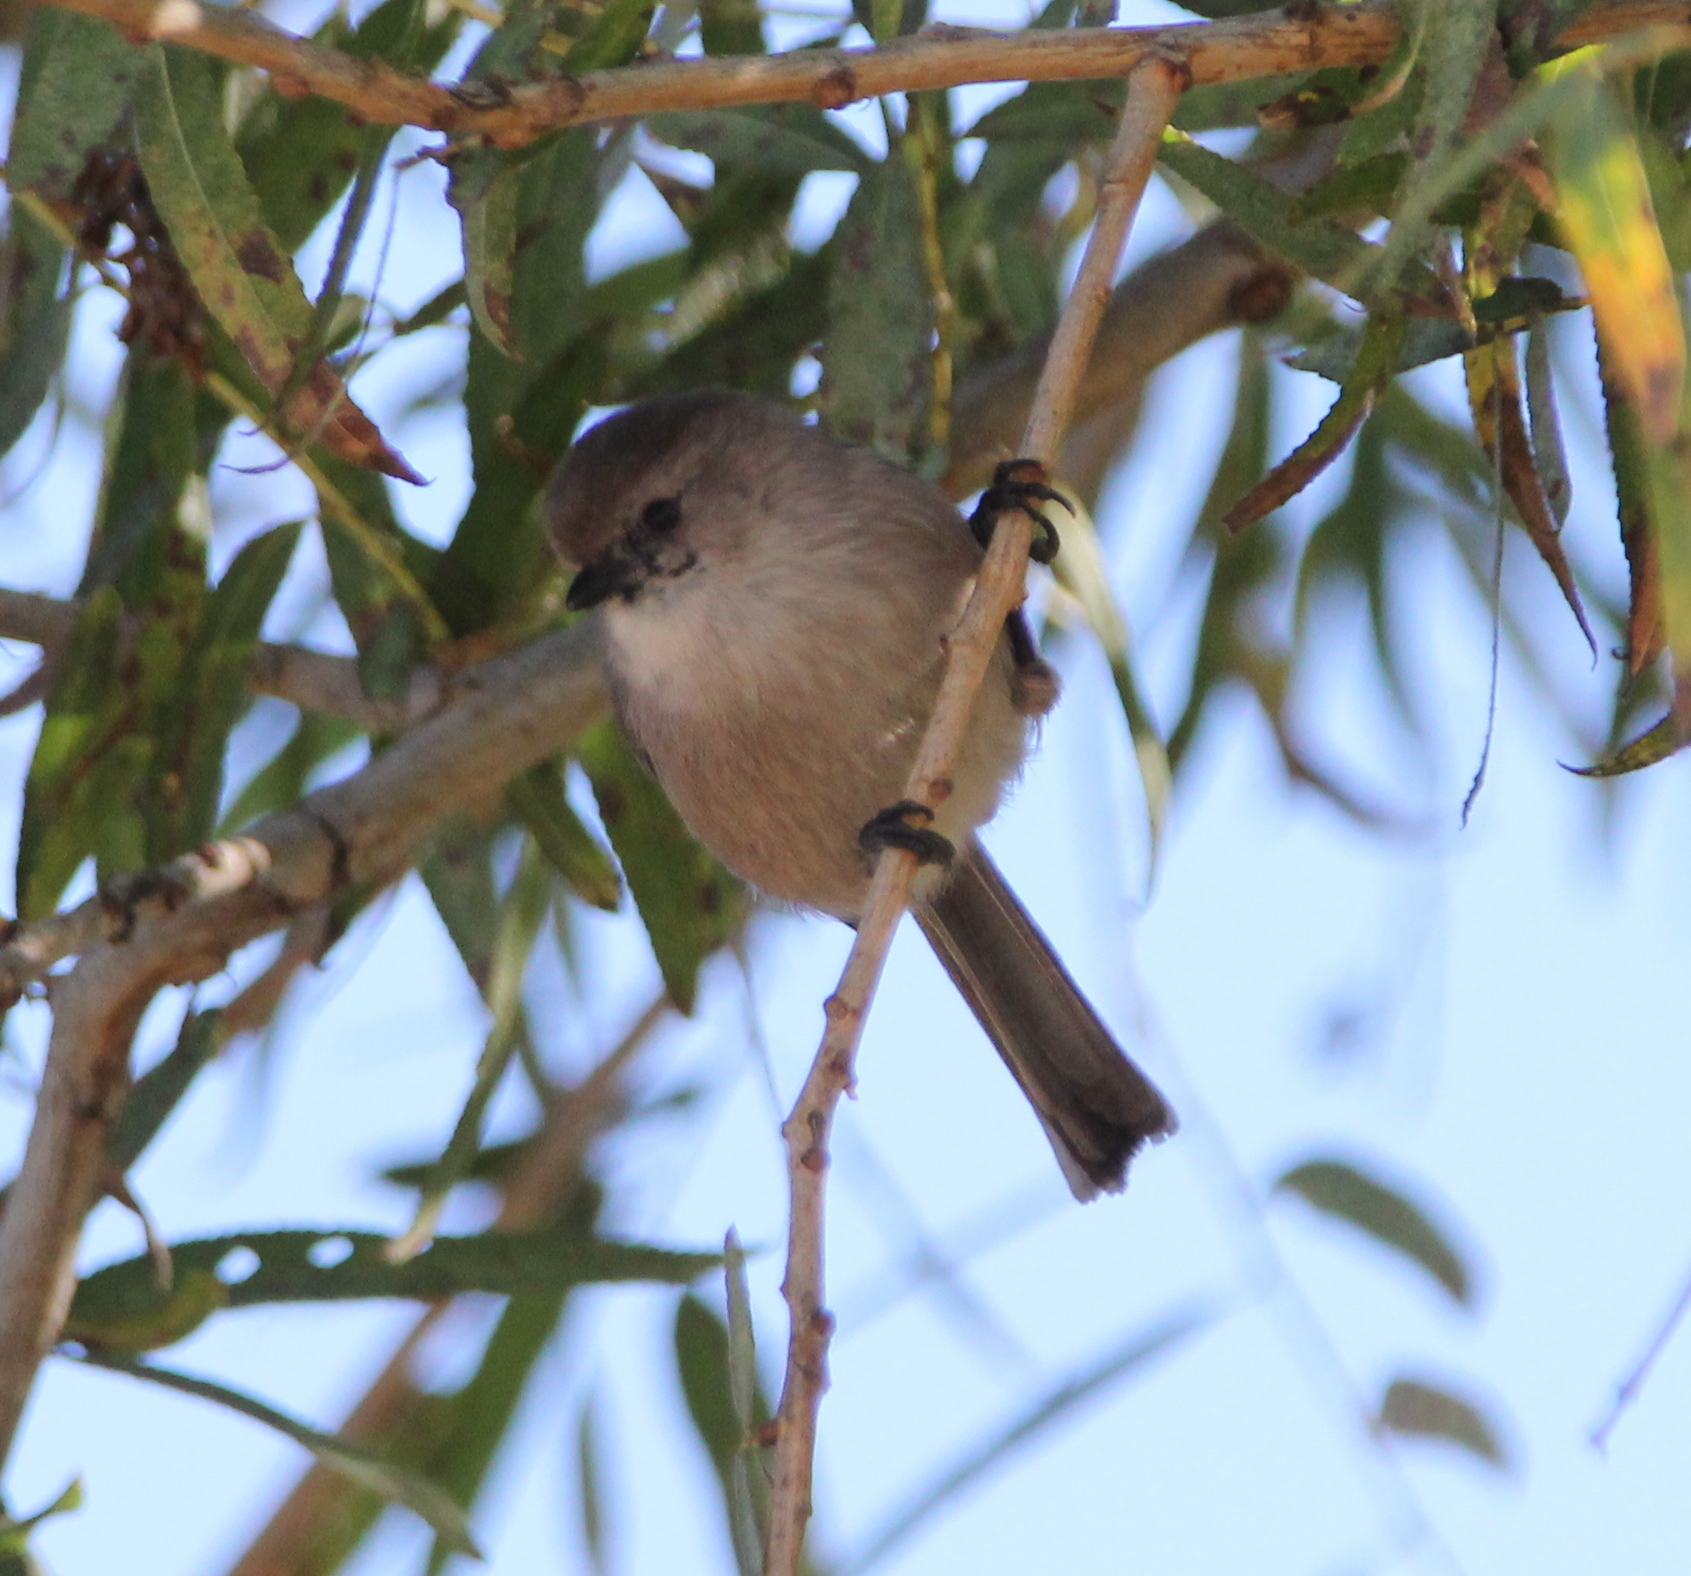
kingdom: Animalia
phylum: Chordata
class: Aves
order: Passeriformes
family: Aegithalidae
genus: Psaltriparus
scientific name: Psaltriparus minimus
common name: American bushtit
